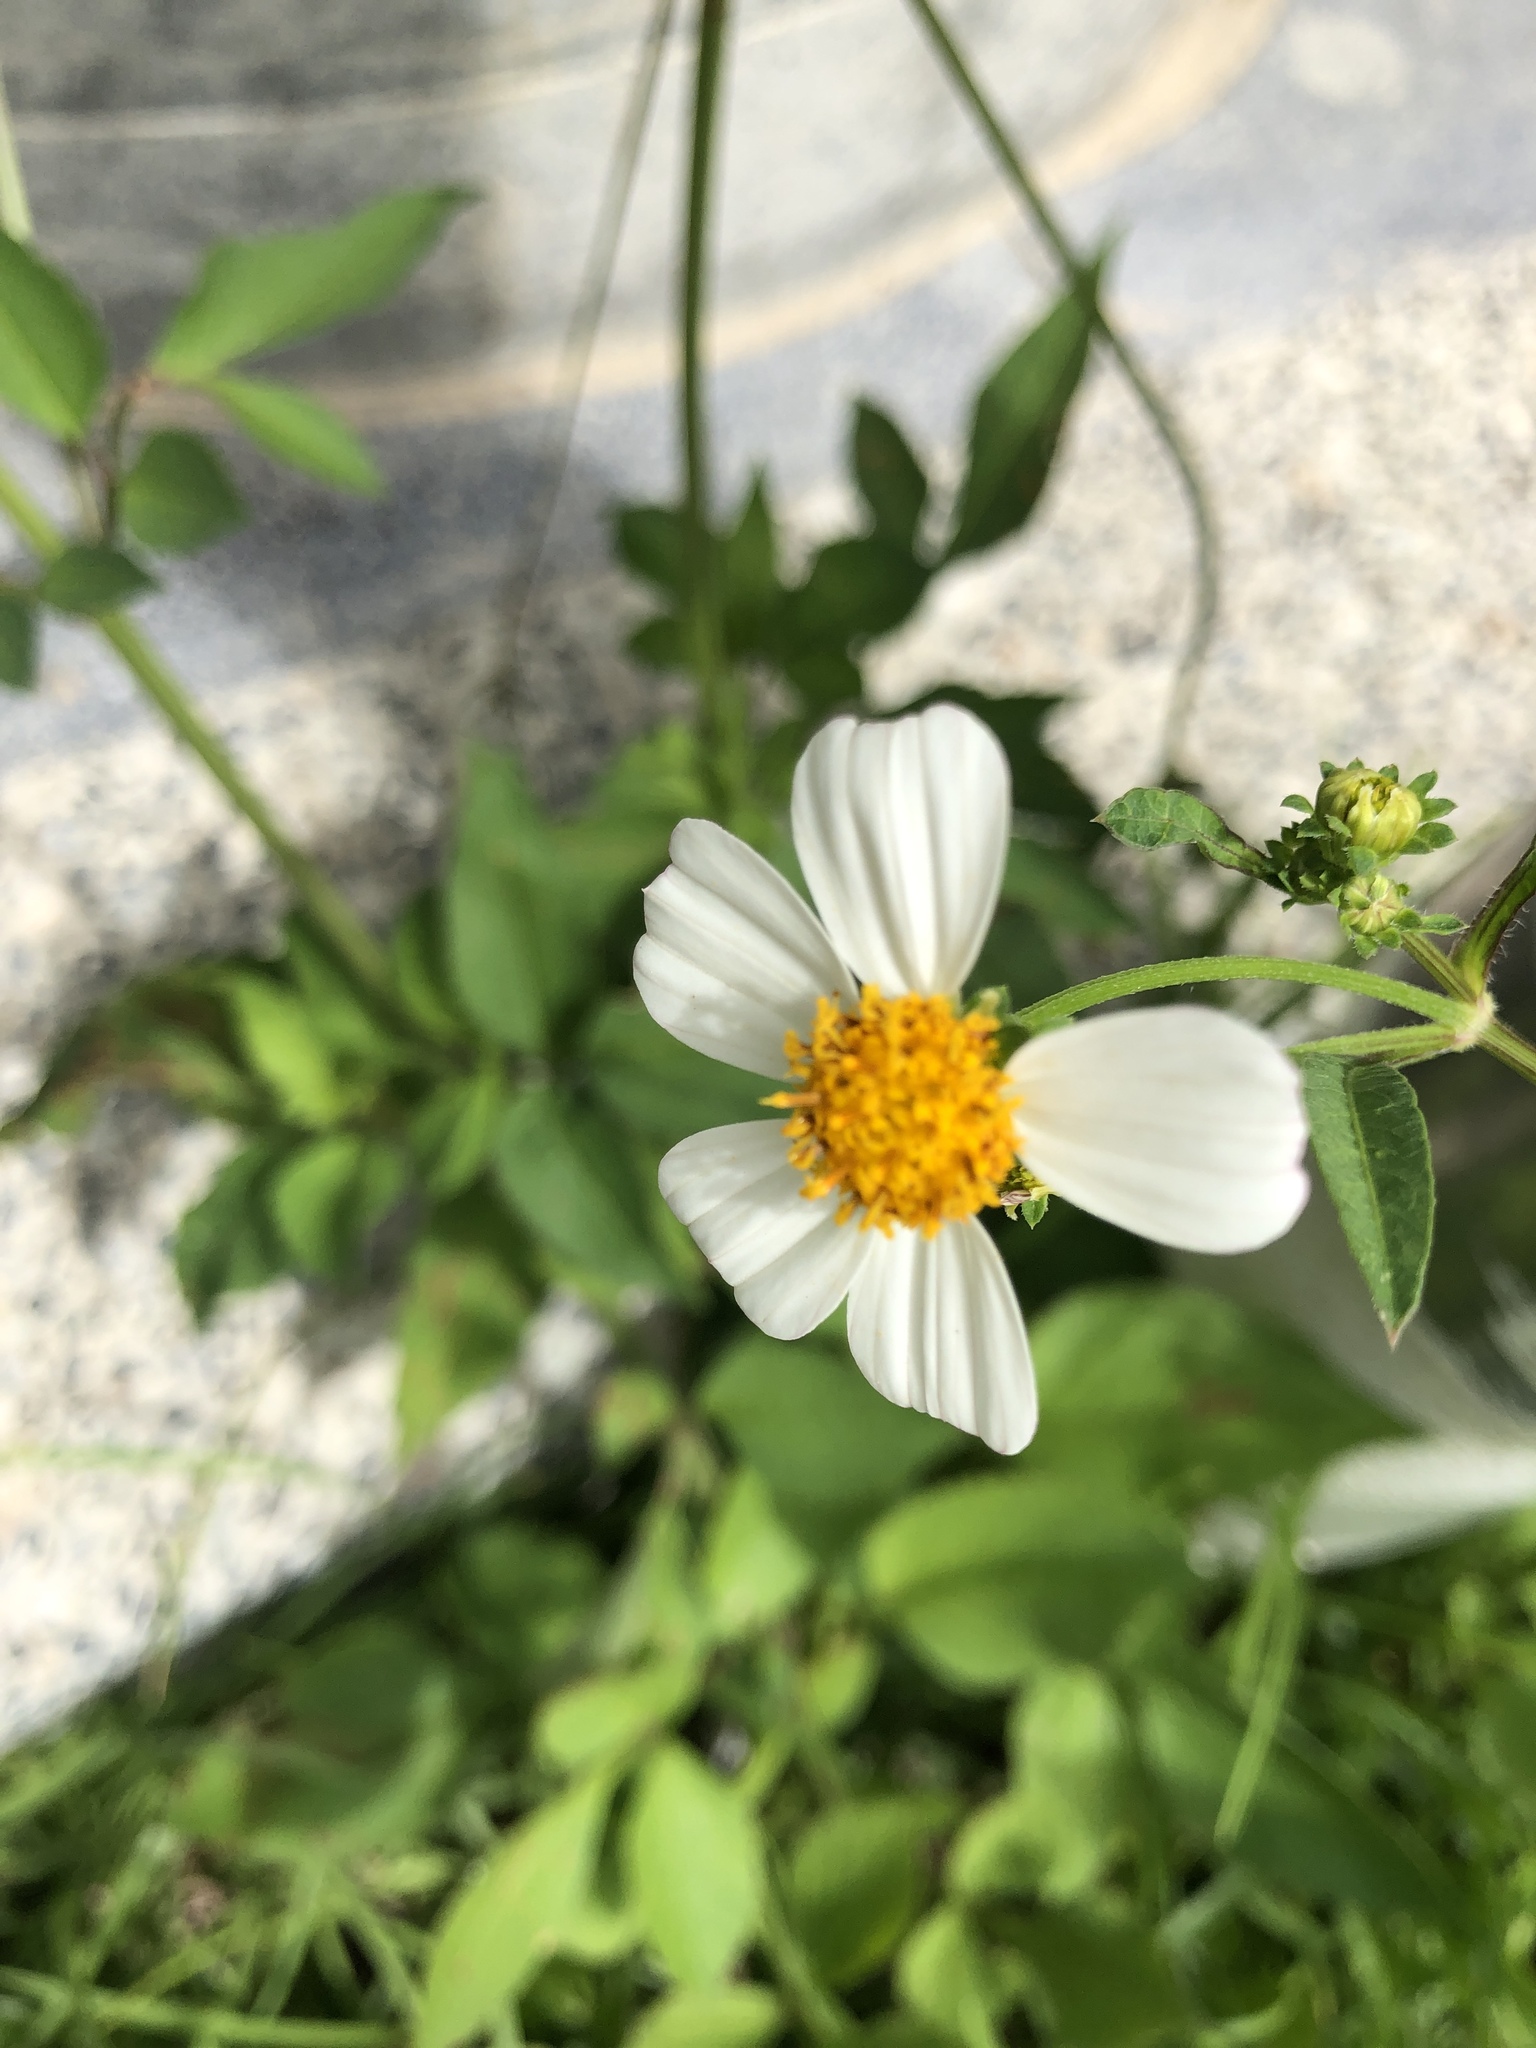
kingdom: Plantae
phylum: Tracheophyta
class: Magnoliopsida
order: Asterales
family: Asteraceae
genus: Bidens
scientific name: Bidens alba
